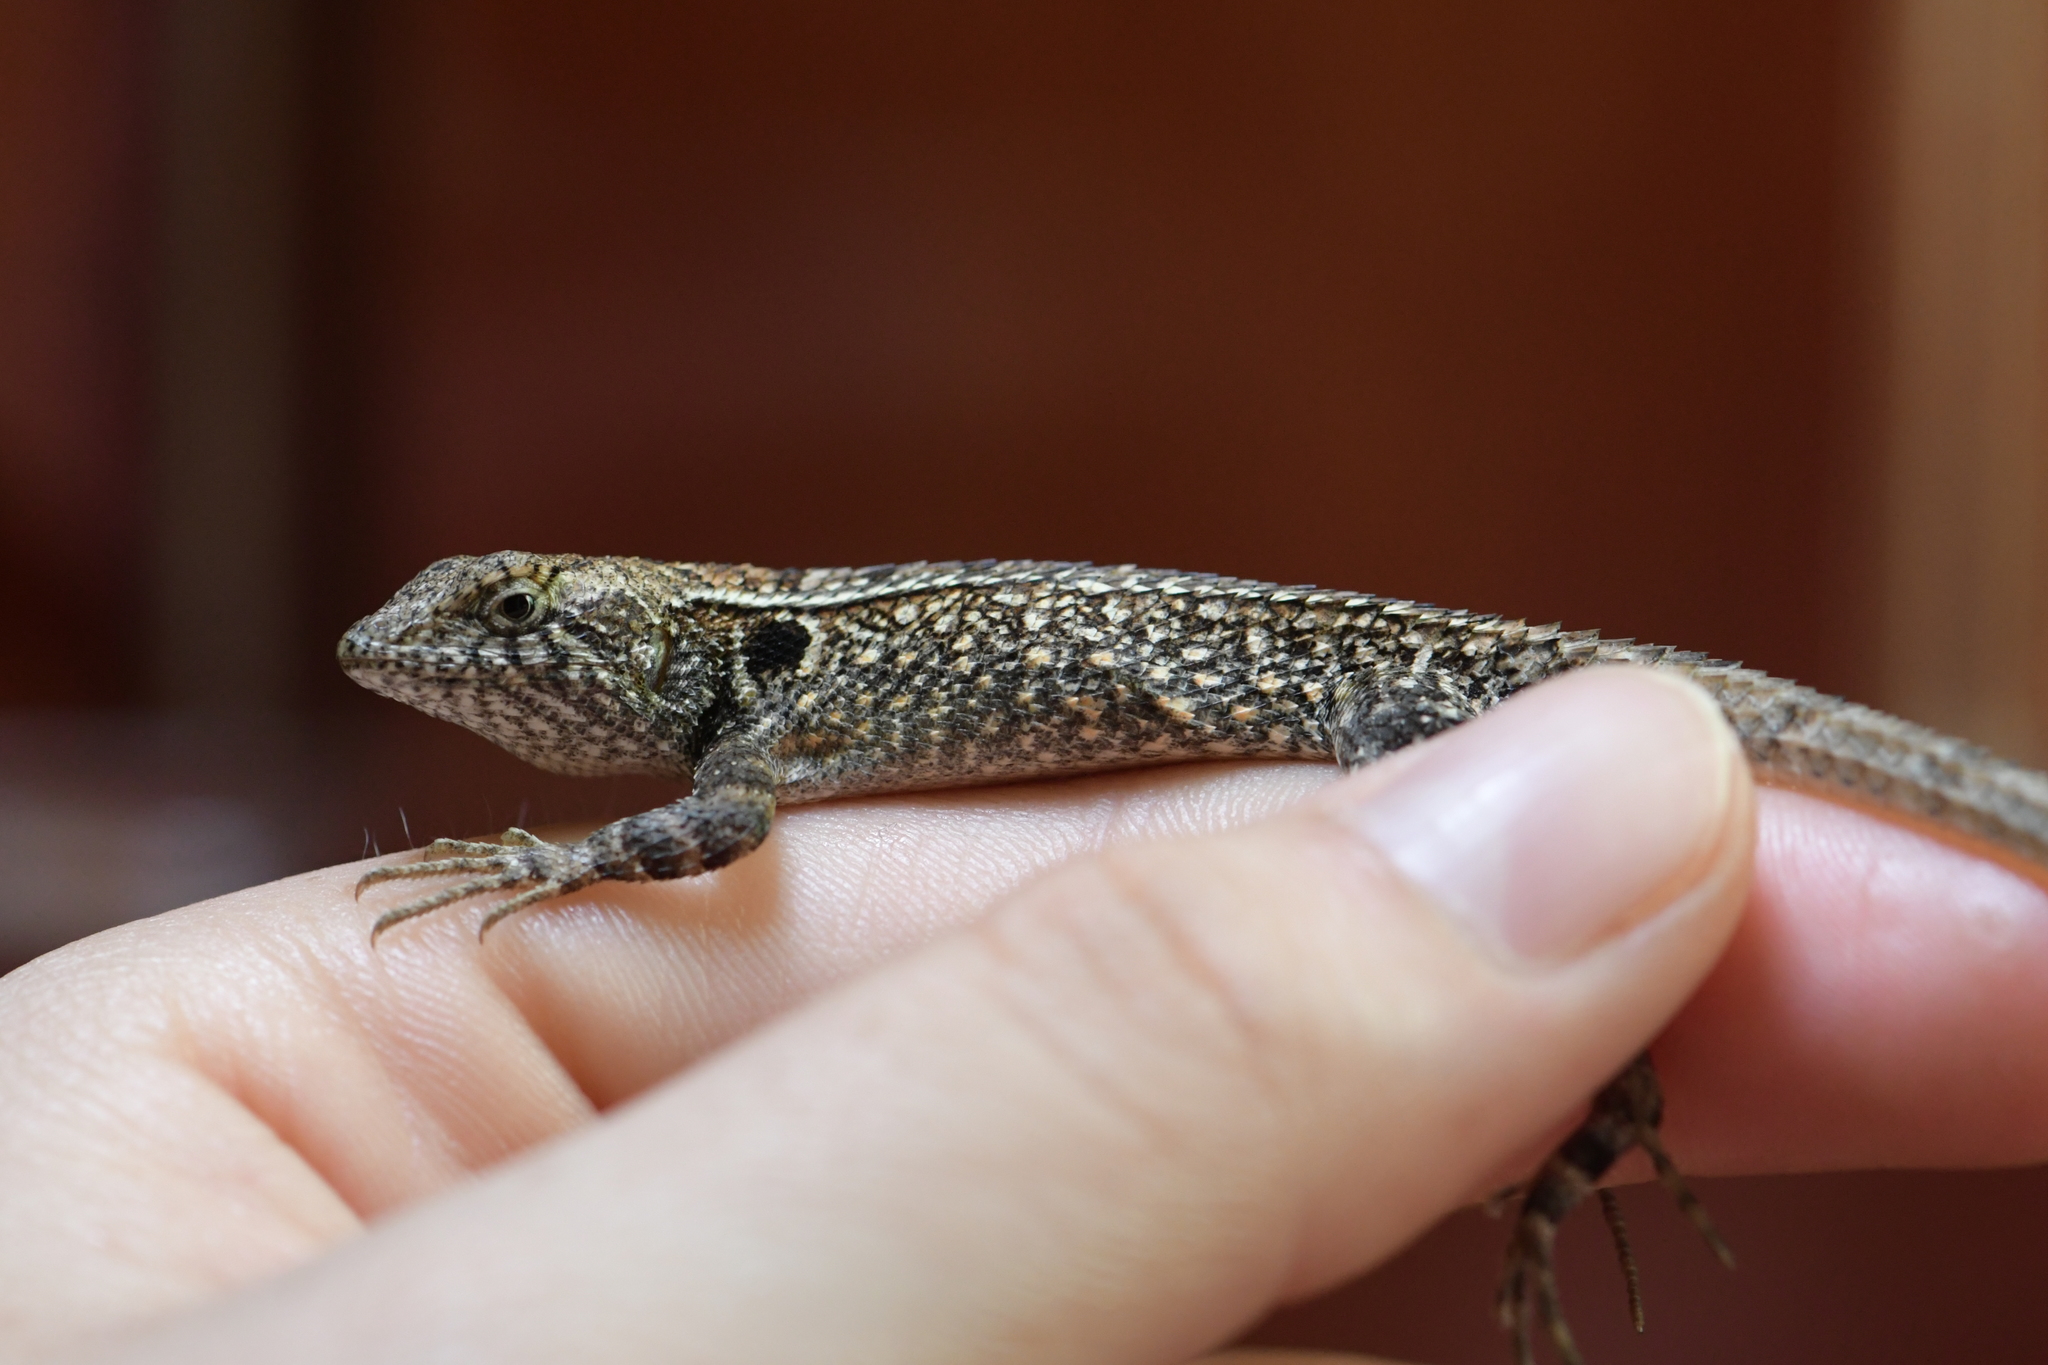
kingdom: Animalia
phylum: Chordata
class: Squamata
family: Phrynosomatidae
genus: Sceloporus
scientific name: Sceloporus siniferus
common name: Longtail spiny lizard
